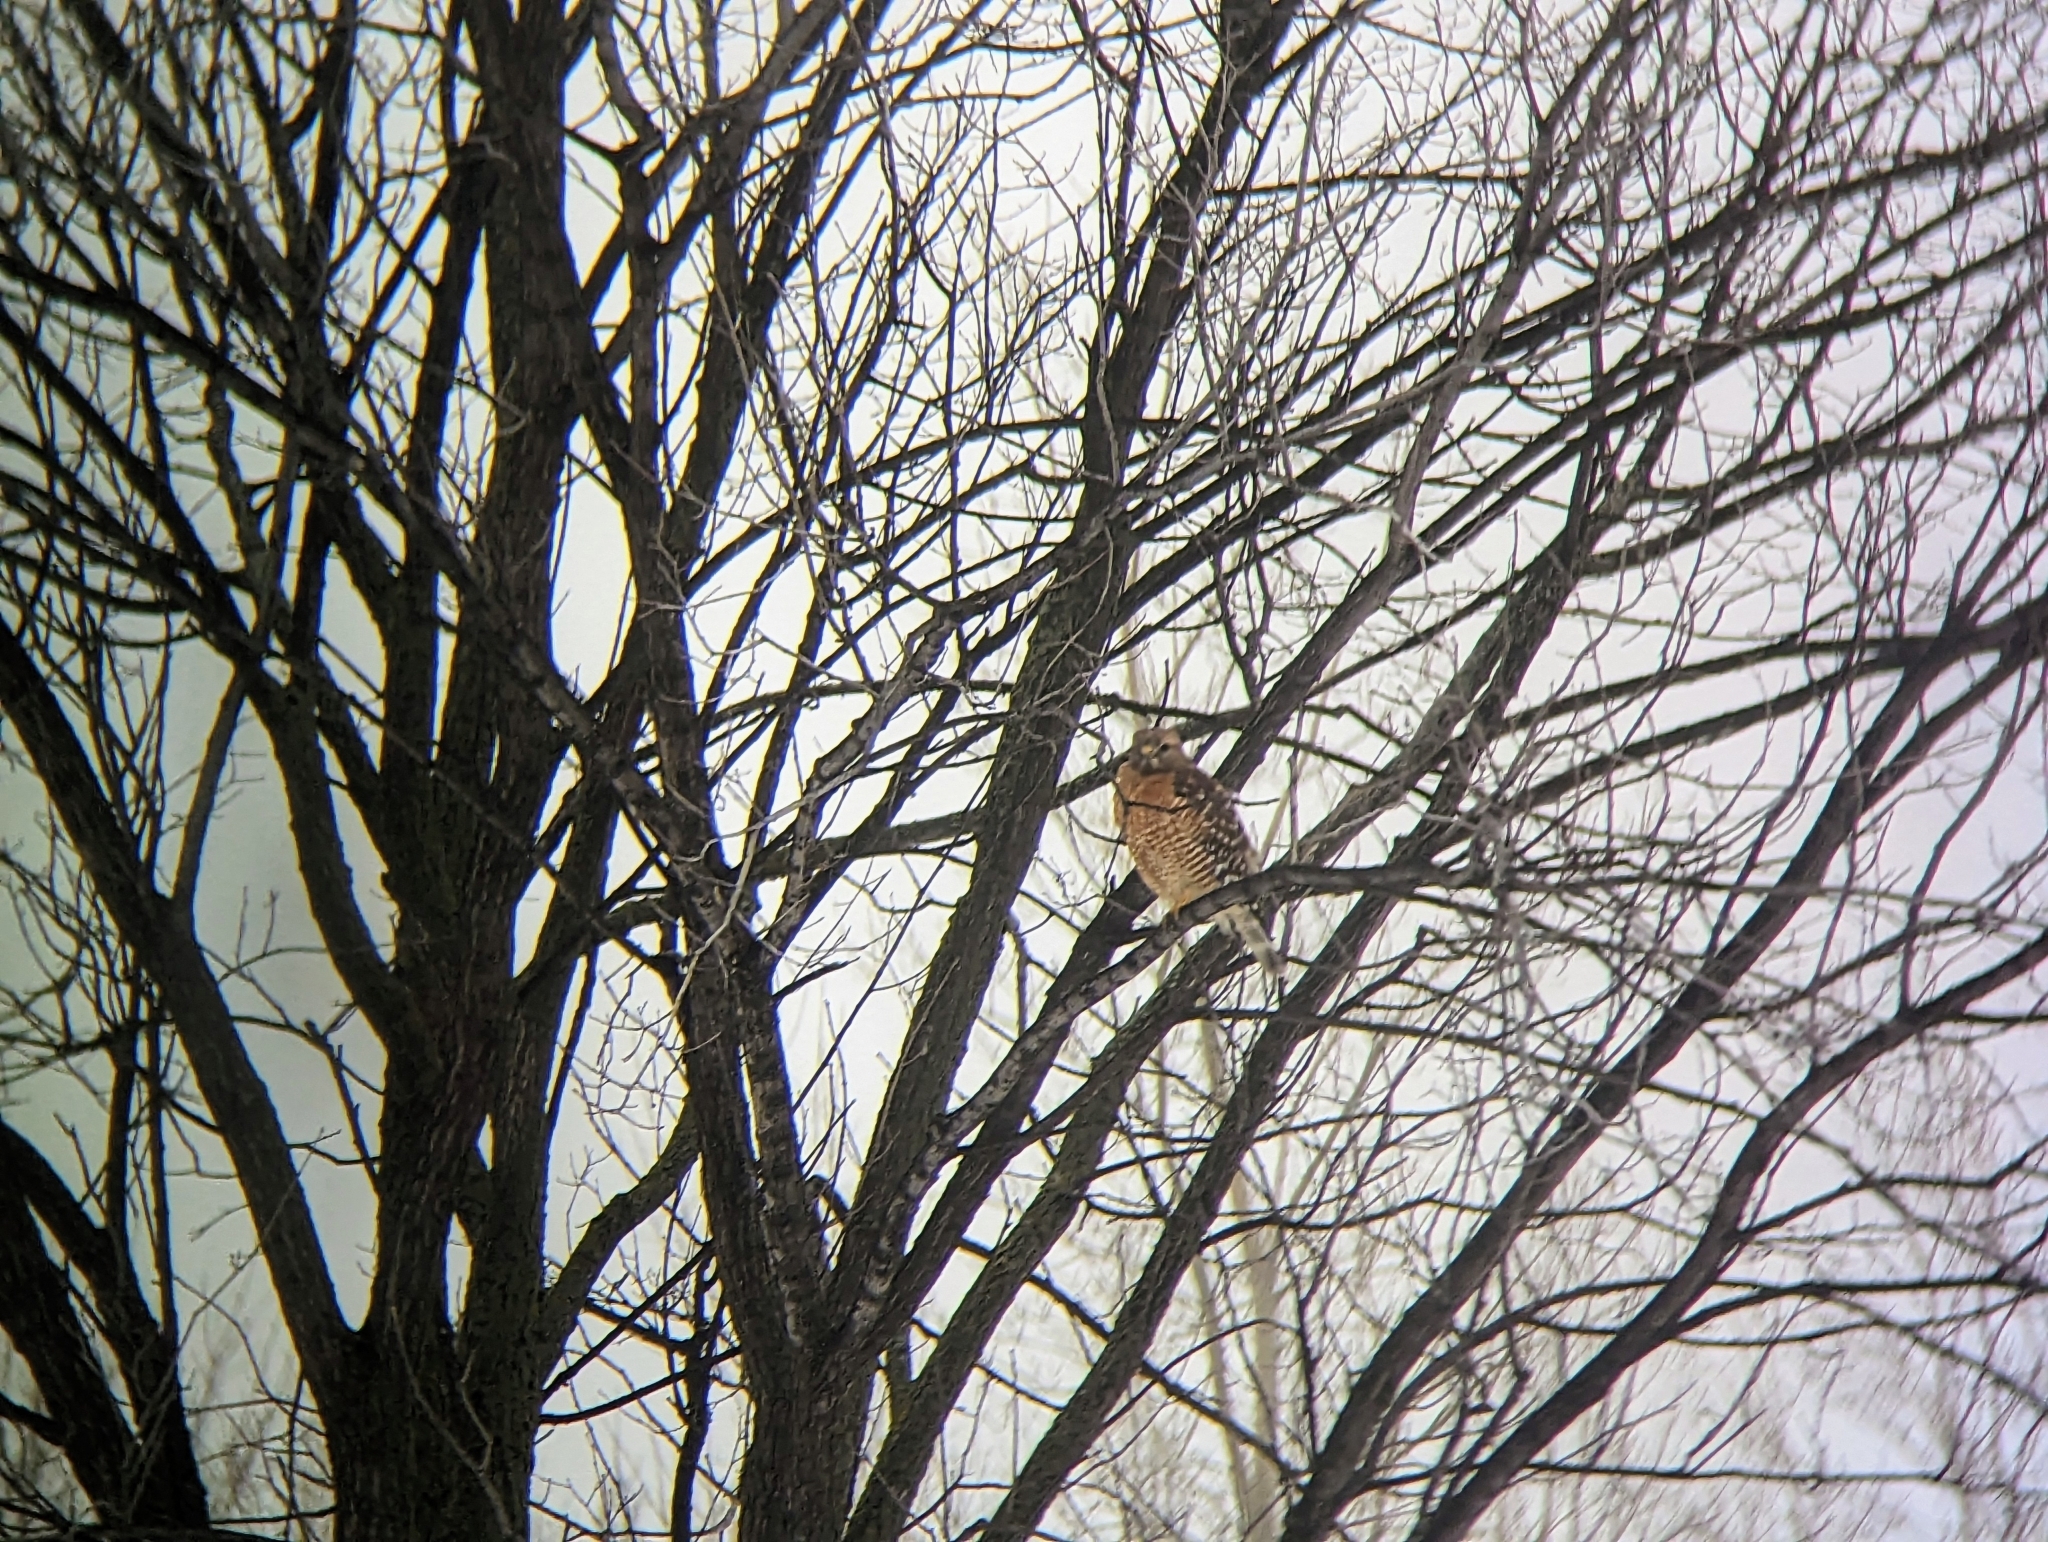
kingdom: Animalia
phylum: Chordata
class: Aves
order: Accipitriformes
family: Accipitridae
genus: Buteo
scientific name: Buteo lineatus
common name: Red-shouldered hawk
